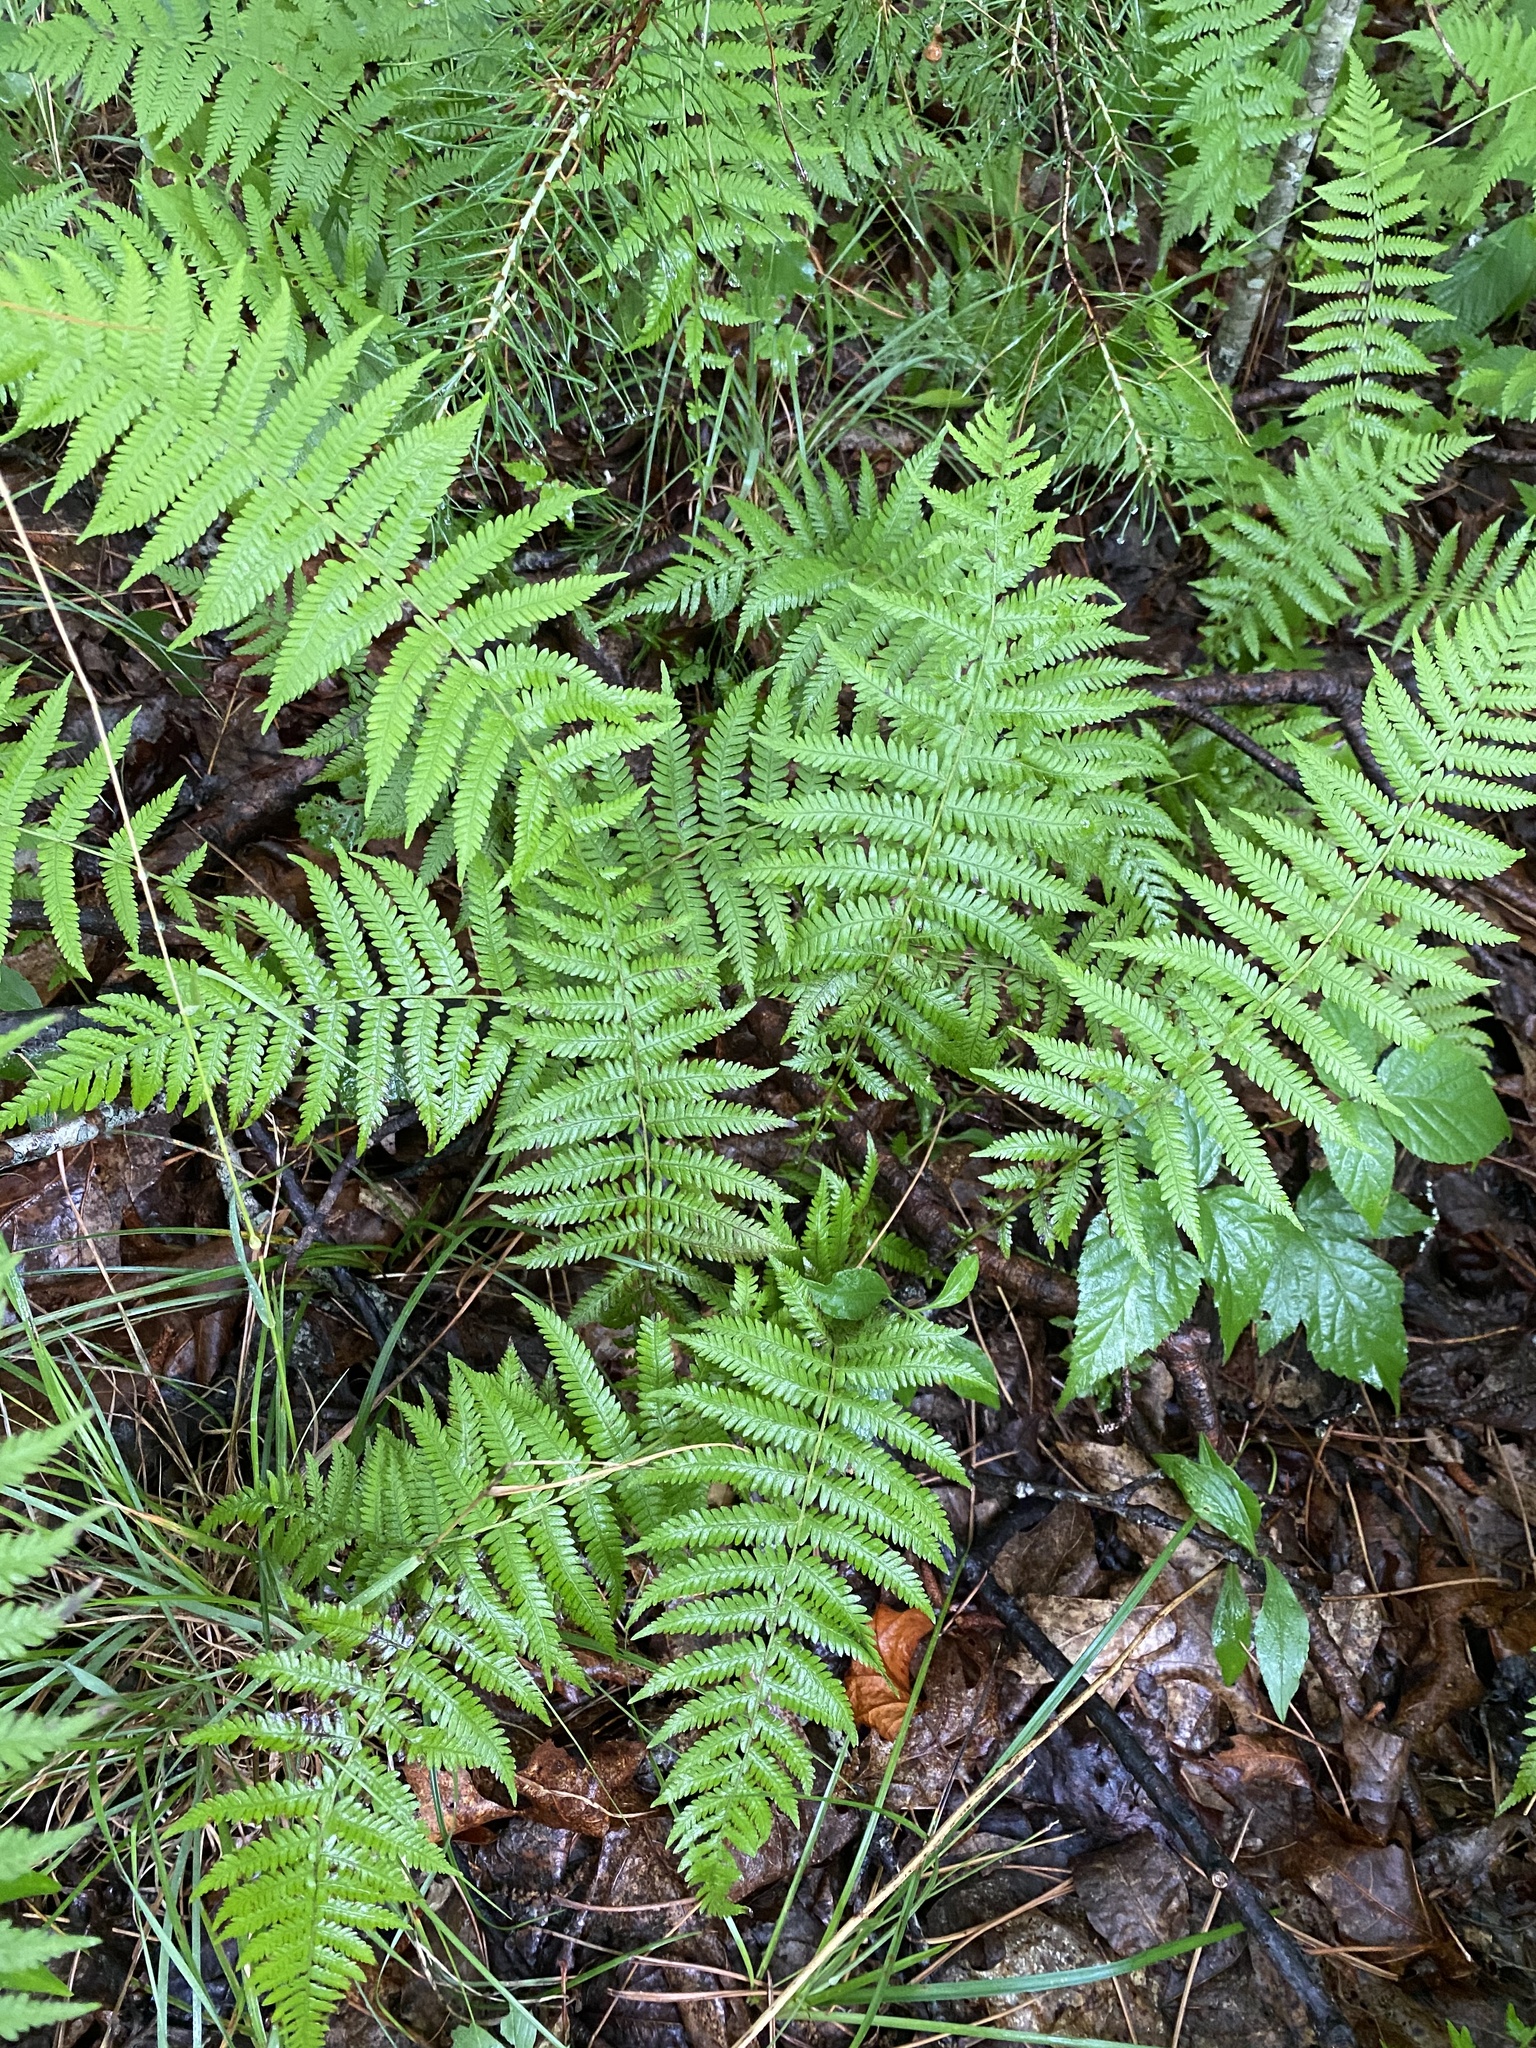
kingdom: Plantae
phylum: Tracheophyta
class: Polypodiopsida
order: Polypodiales
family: Thelypteridaceae
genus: Amauropelta
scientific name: Amauropelta noveboracensis
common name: New york fern
